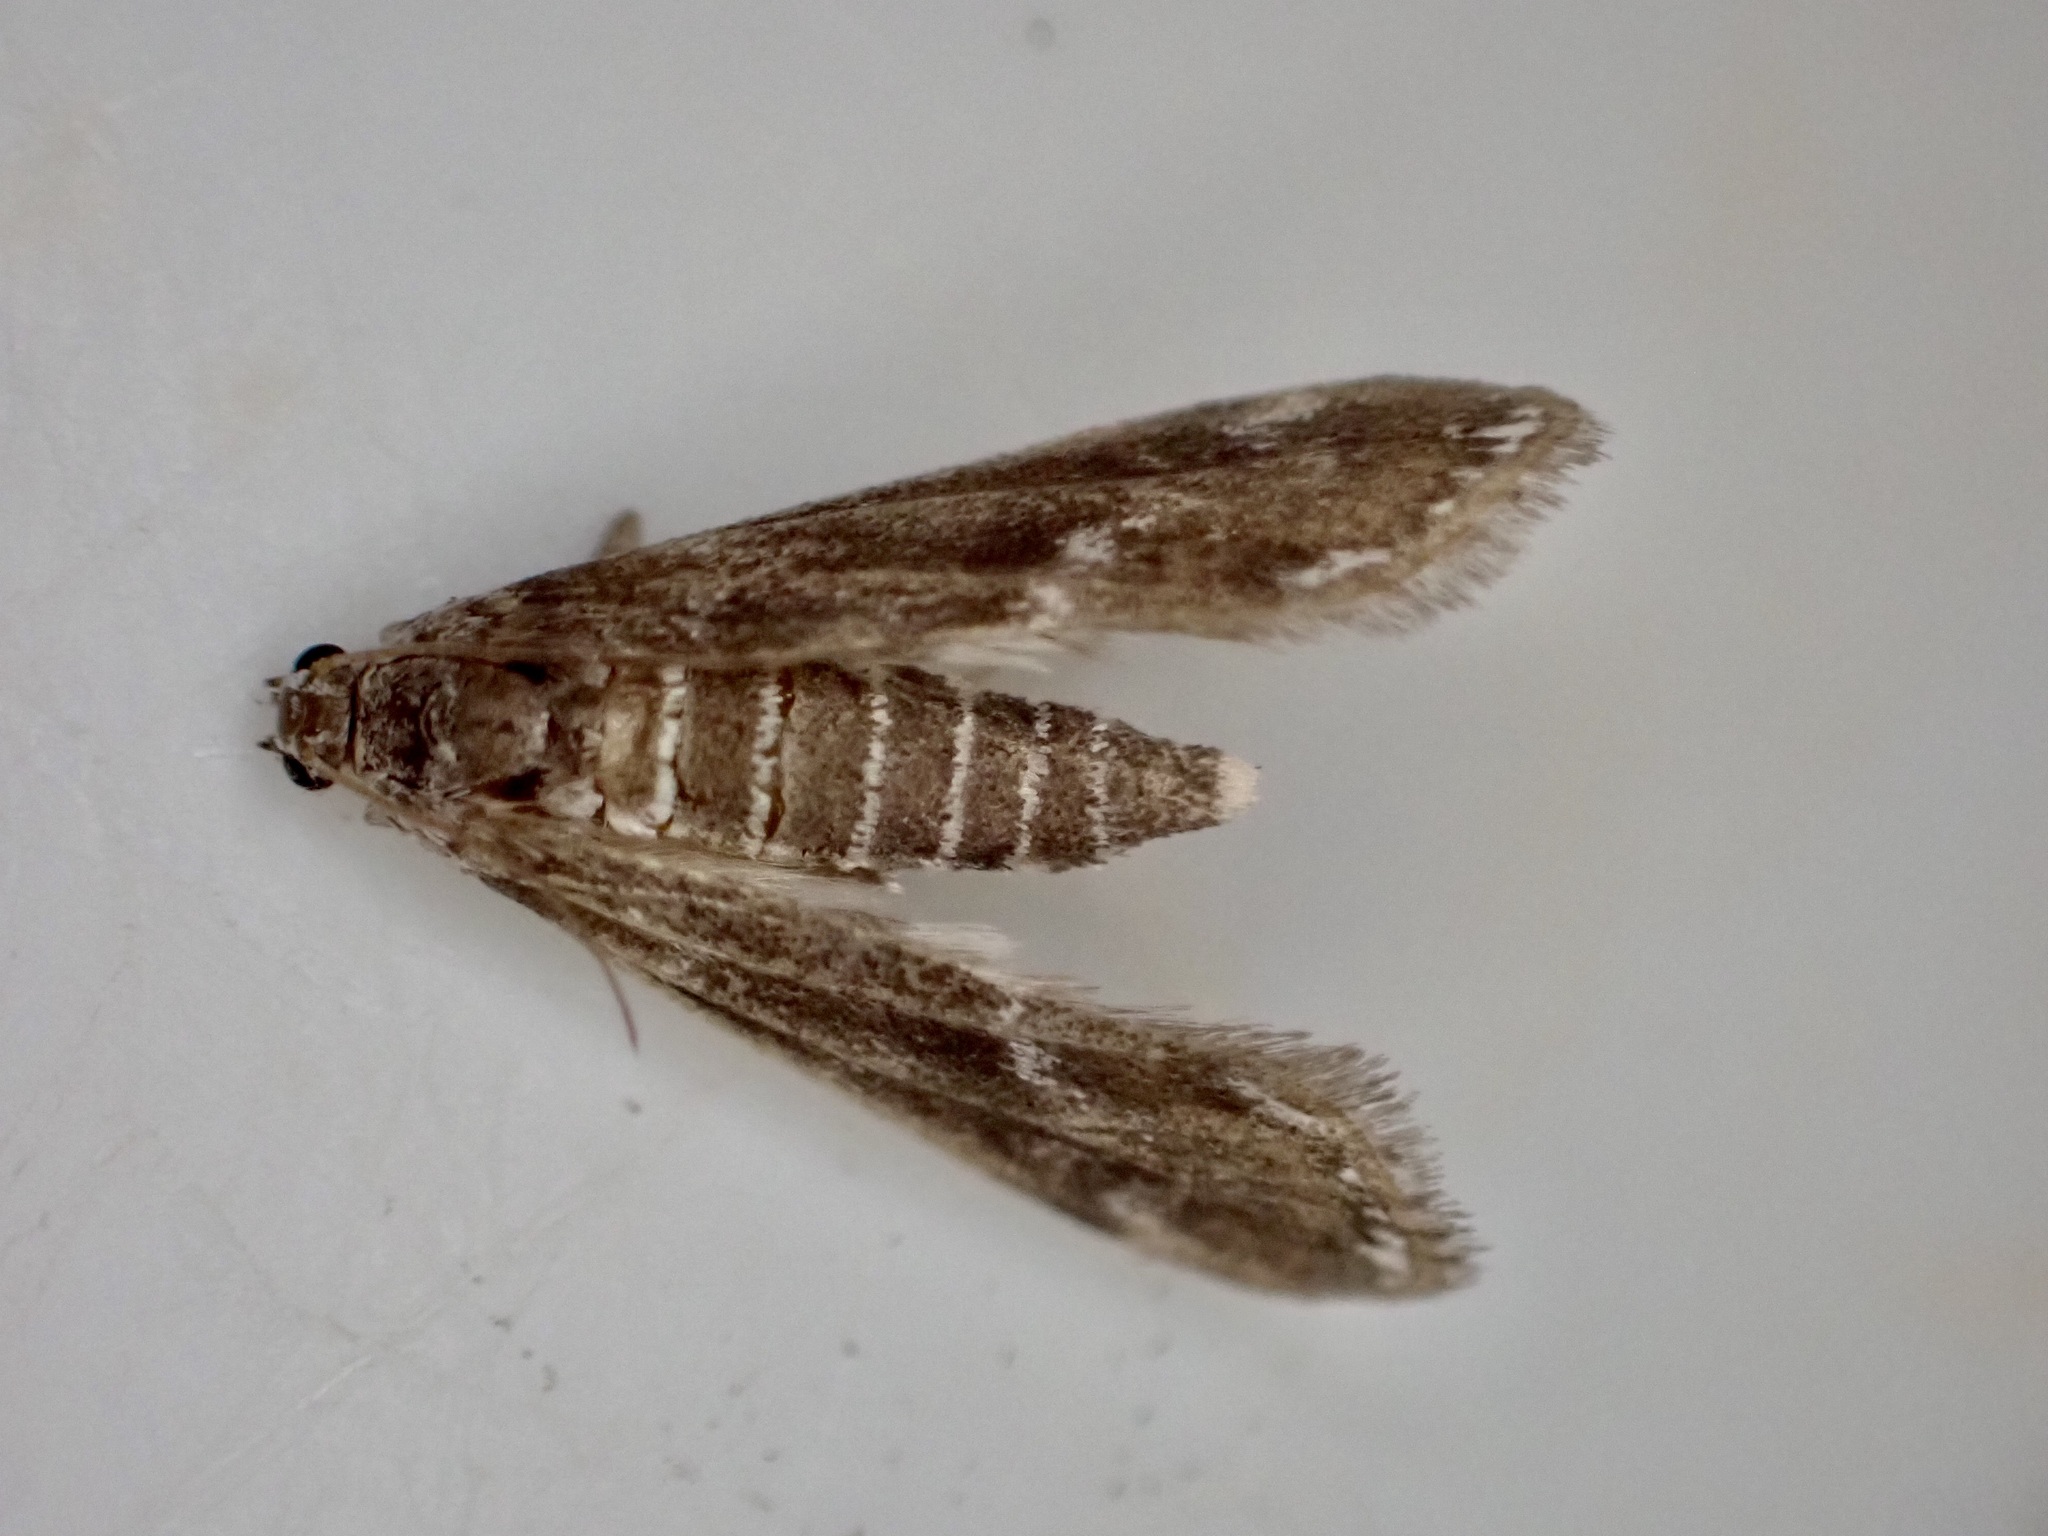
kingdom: Animalia
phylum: Arthropoda
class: Insecta
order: Lepidoptera
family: Crambidae
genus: Hygraula
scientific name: Hygraula nitens
